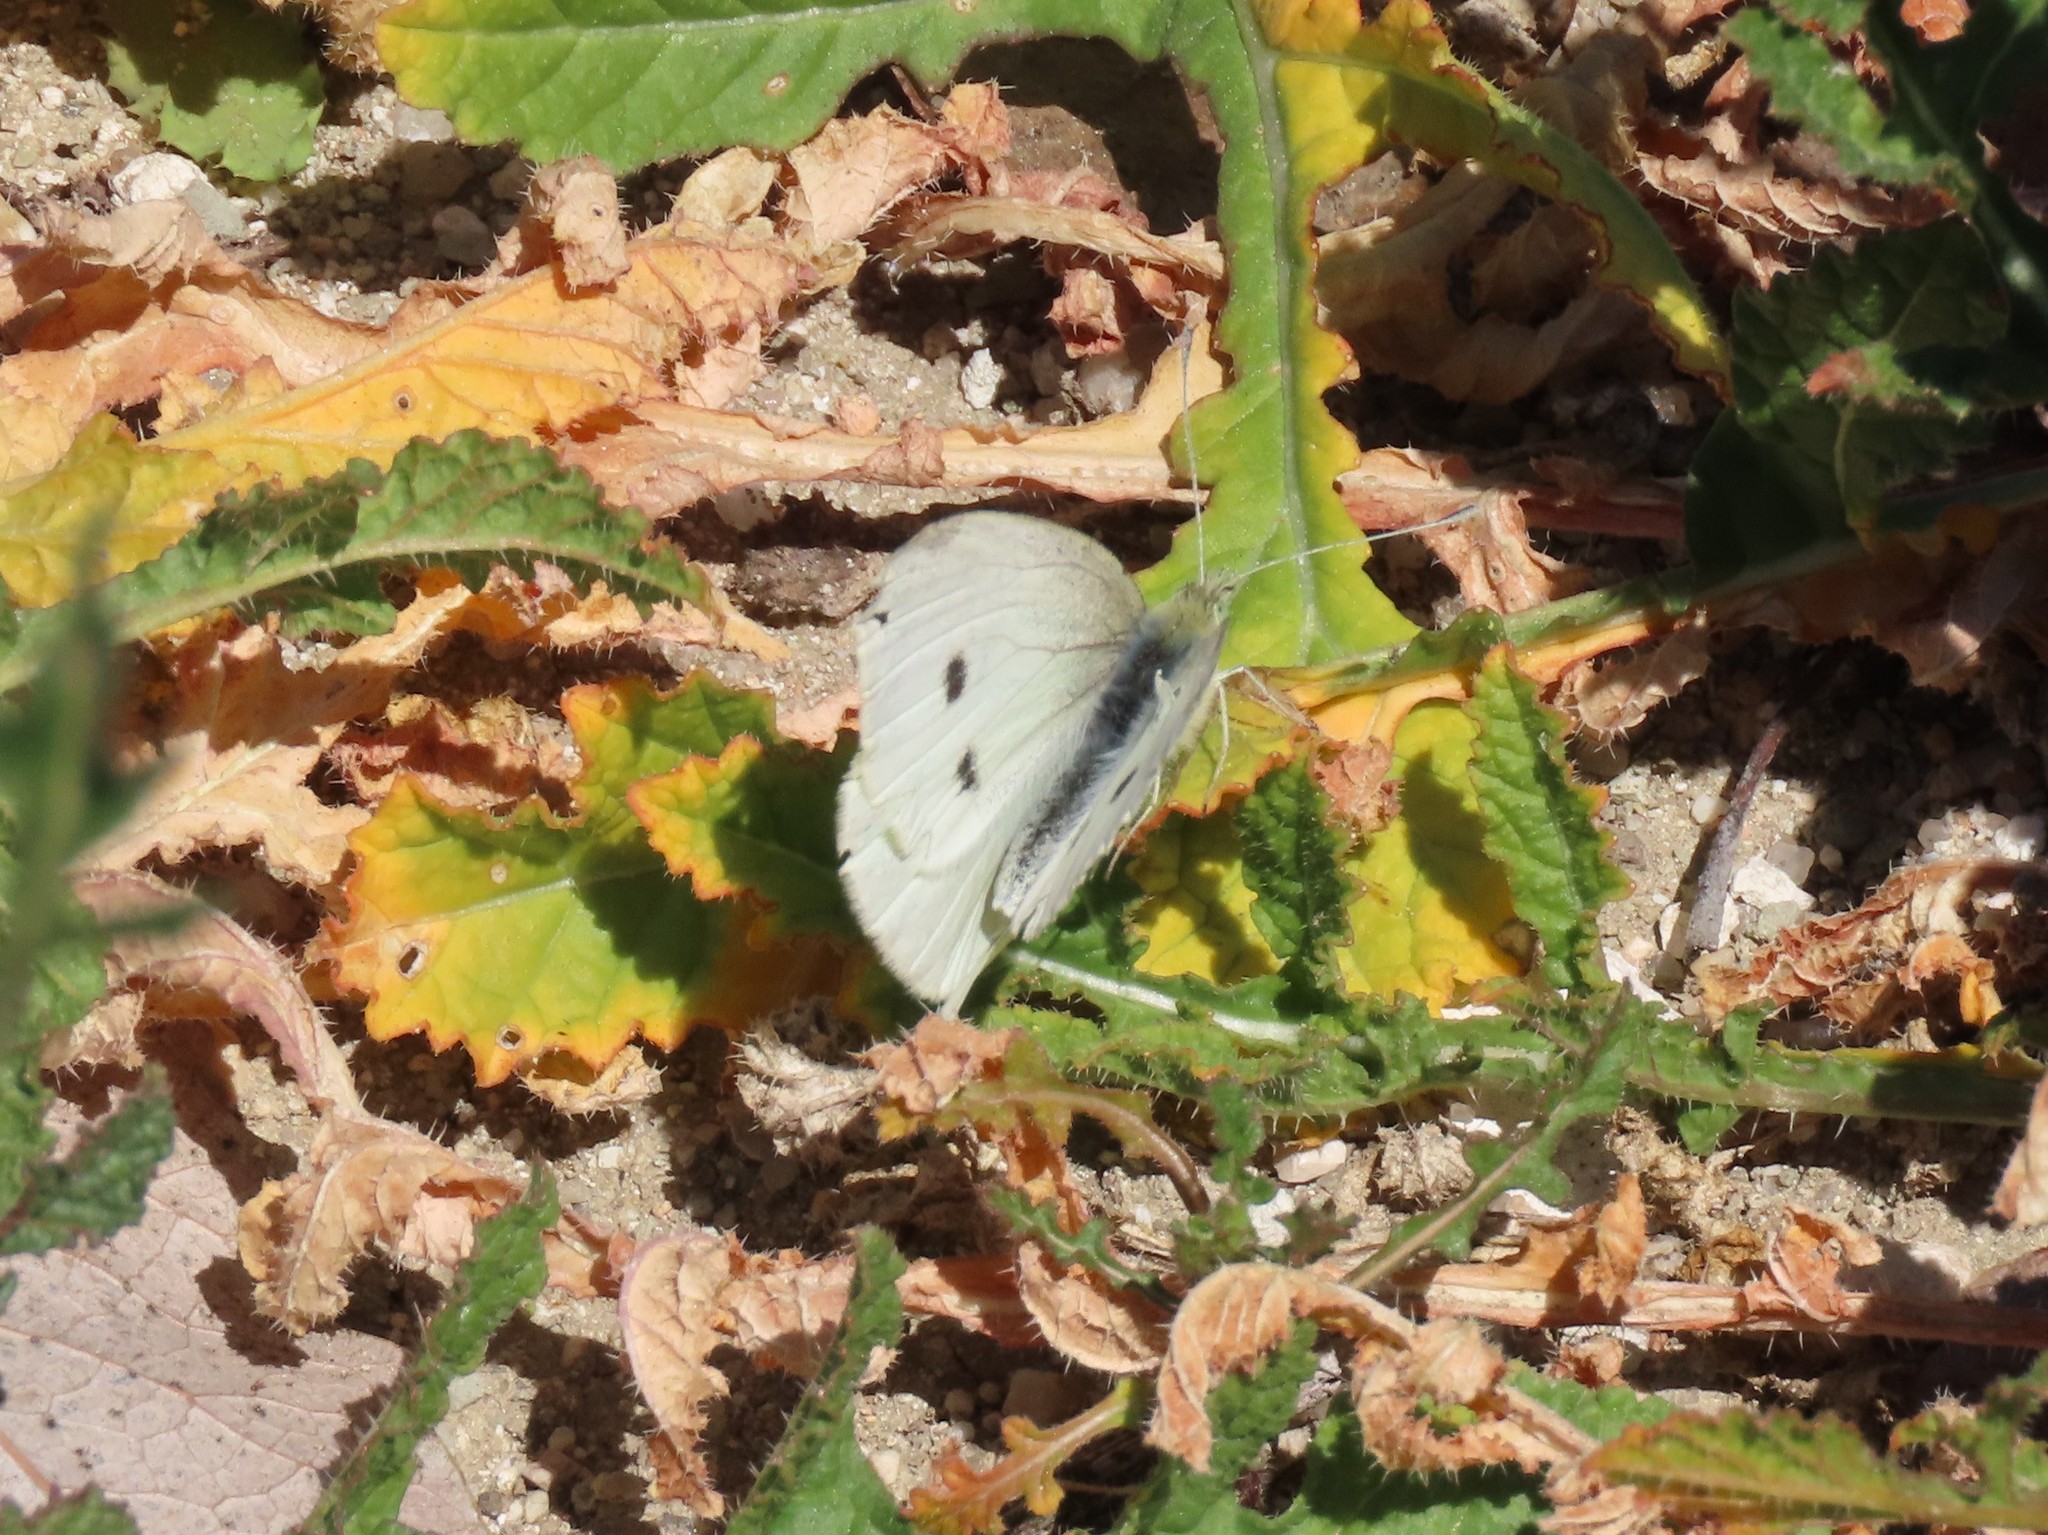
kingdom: Animalia
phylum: Arthropoda
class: Insecta
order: Lepidoptera
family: Pieridae
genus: Pieris
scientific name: Pieris rapae
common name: Small white
